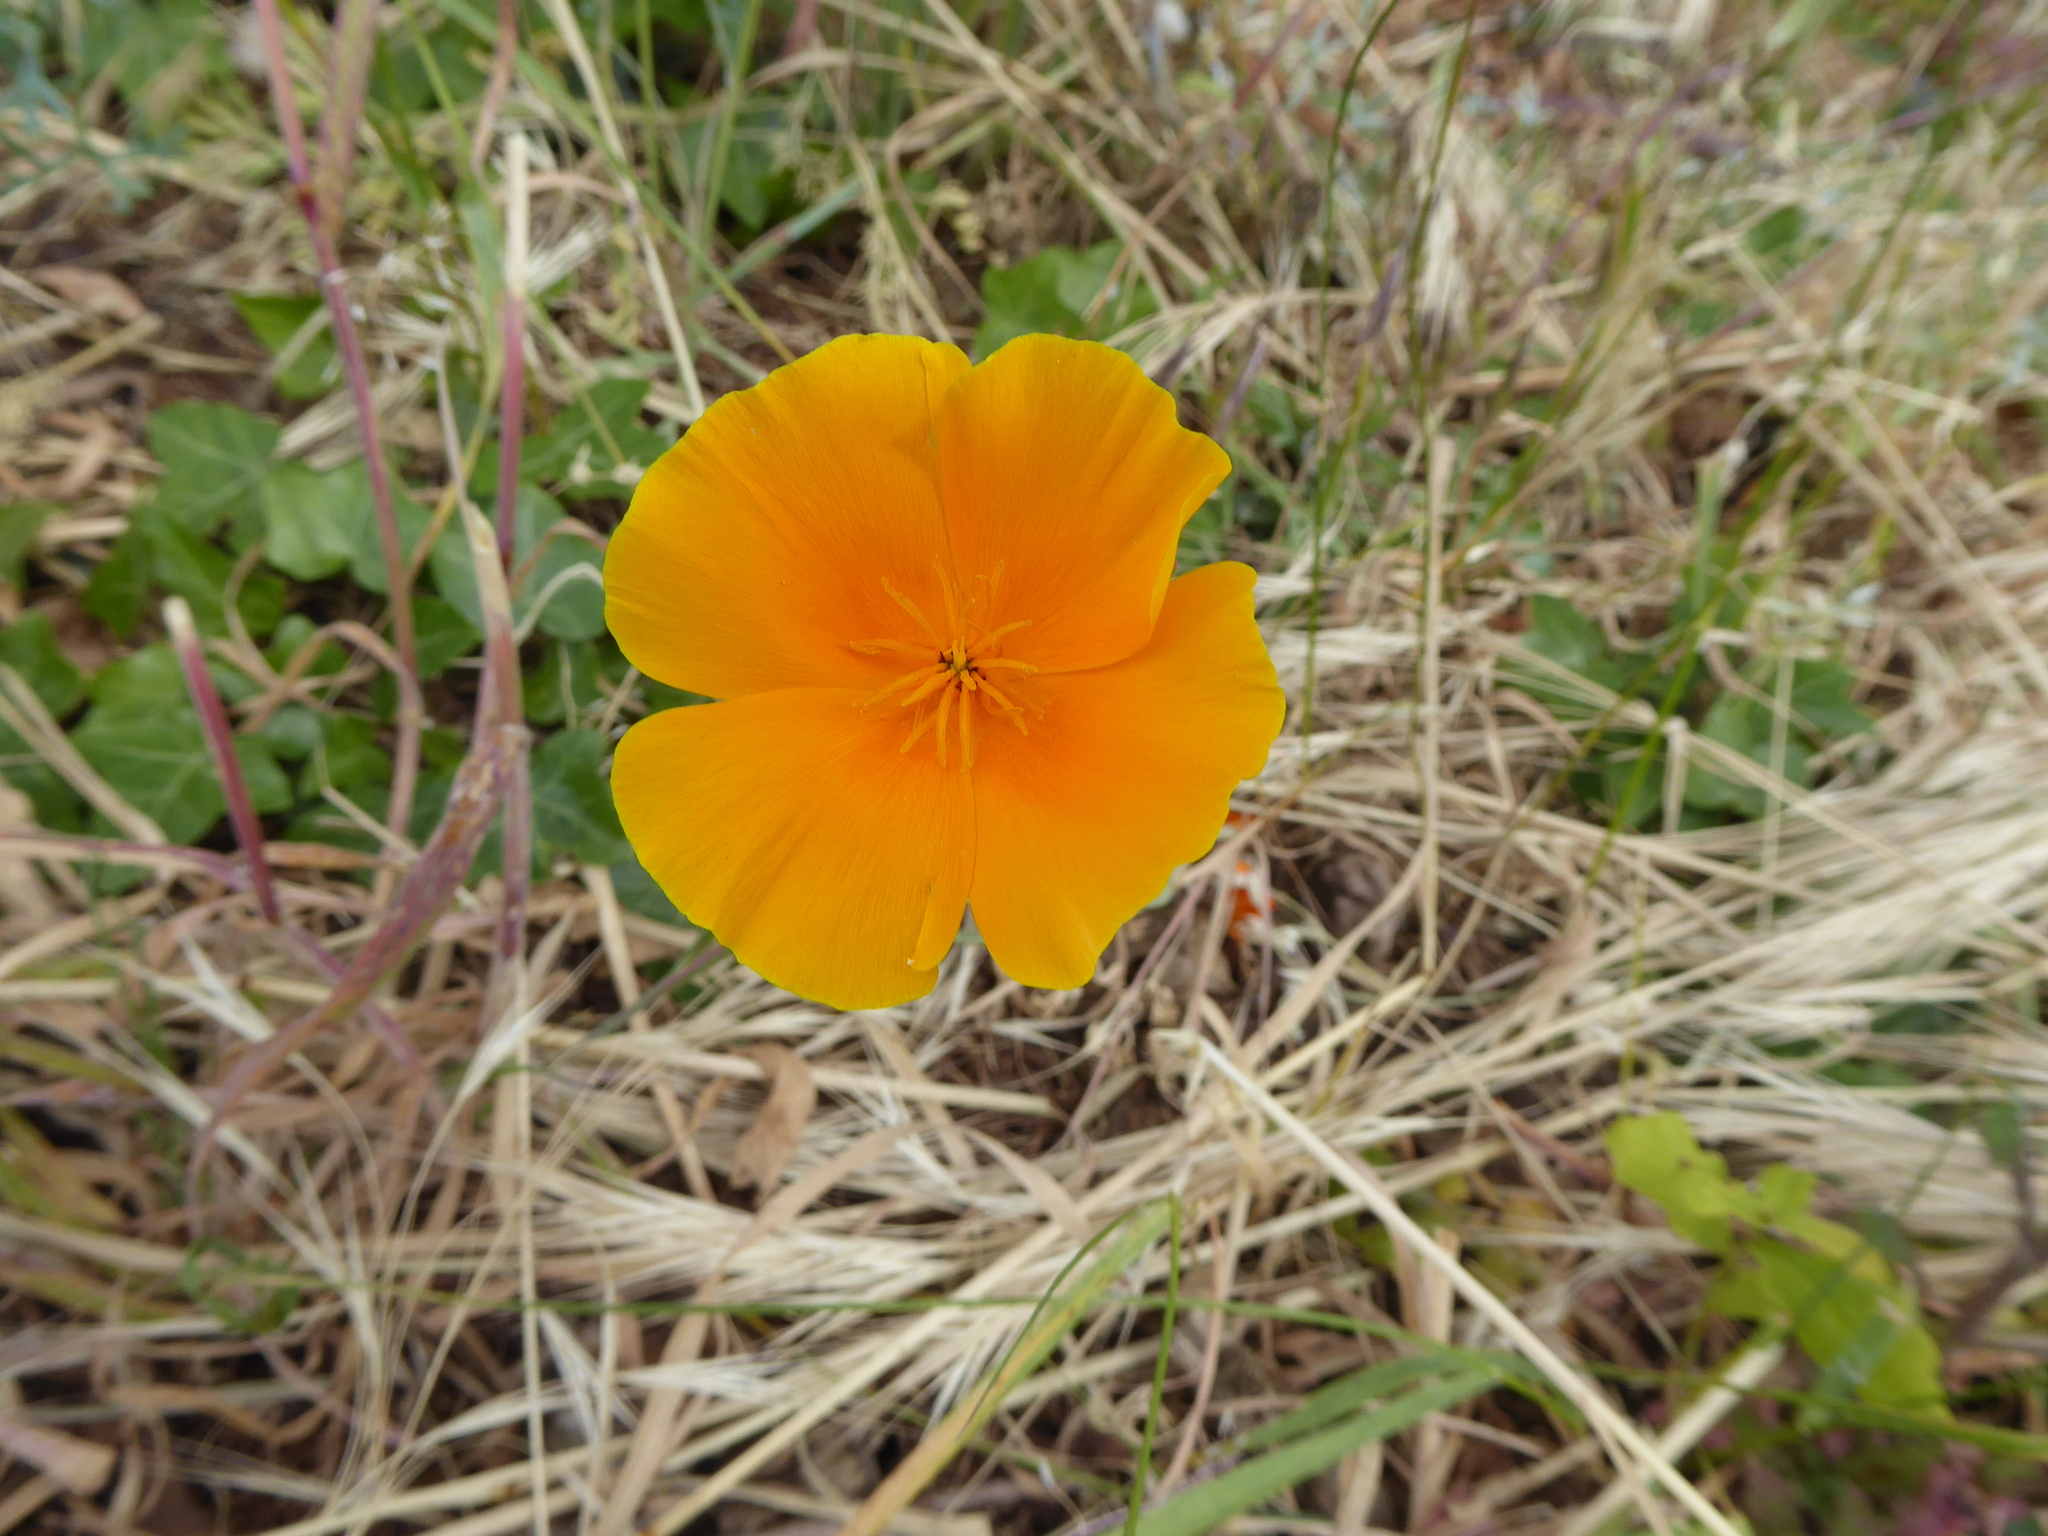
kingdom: Plantae
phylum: Tracheophyta
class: Magnoliopsida
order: Ranunculales
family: Papaveraceae
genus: Eschscholzia
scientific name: Eschscholzia californica
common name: California poppy
